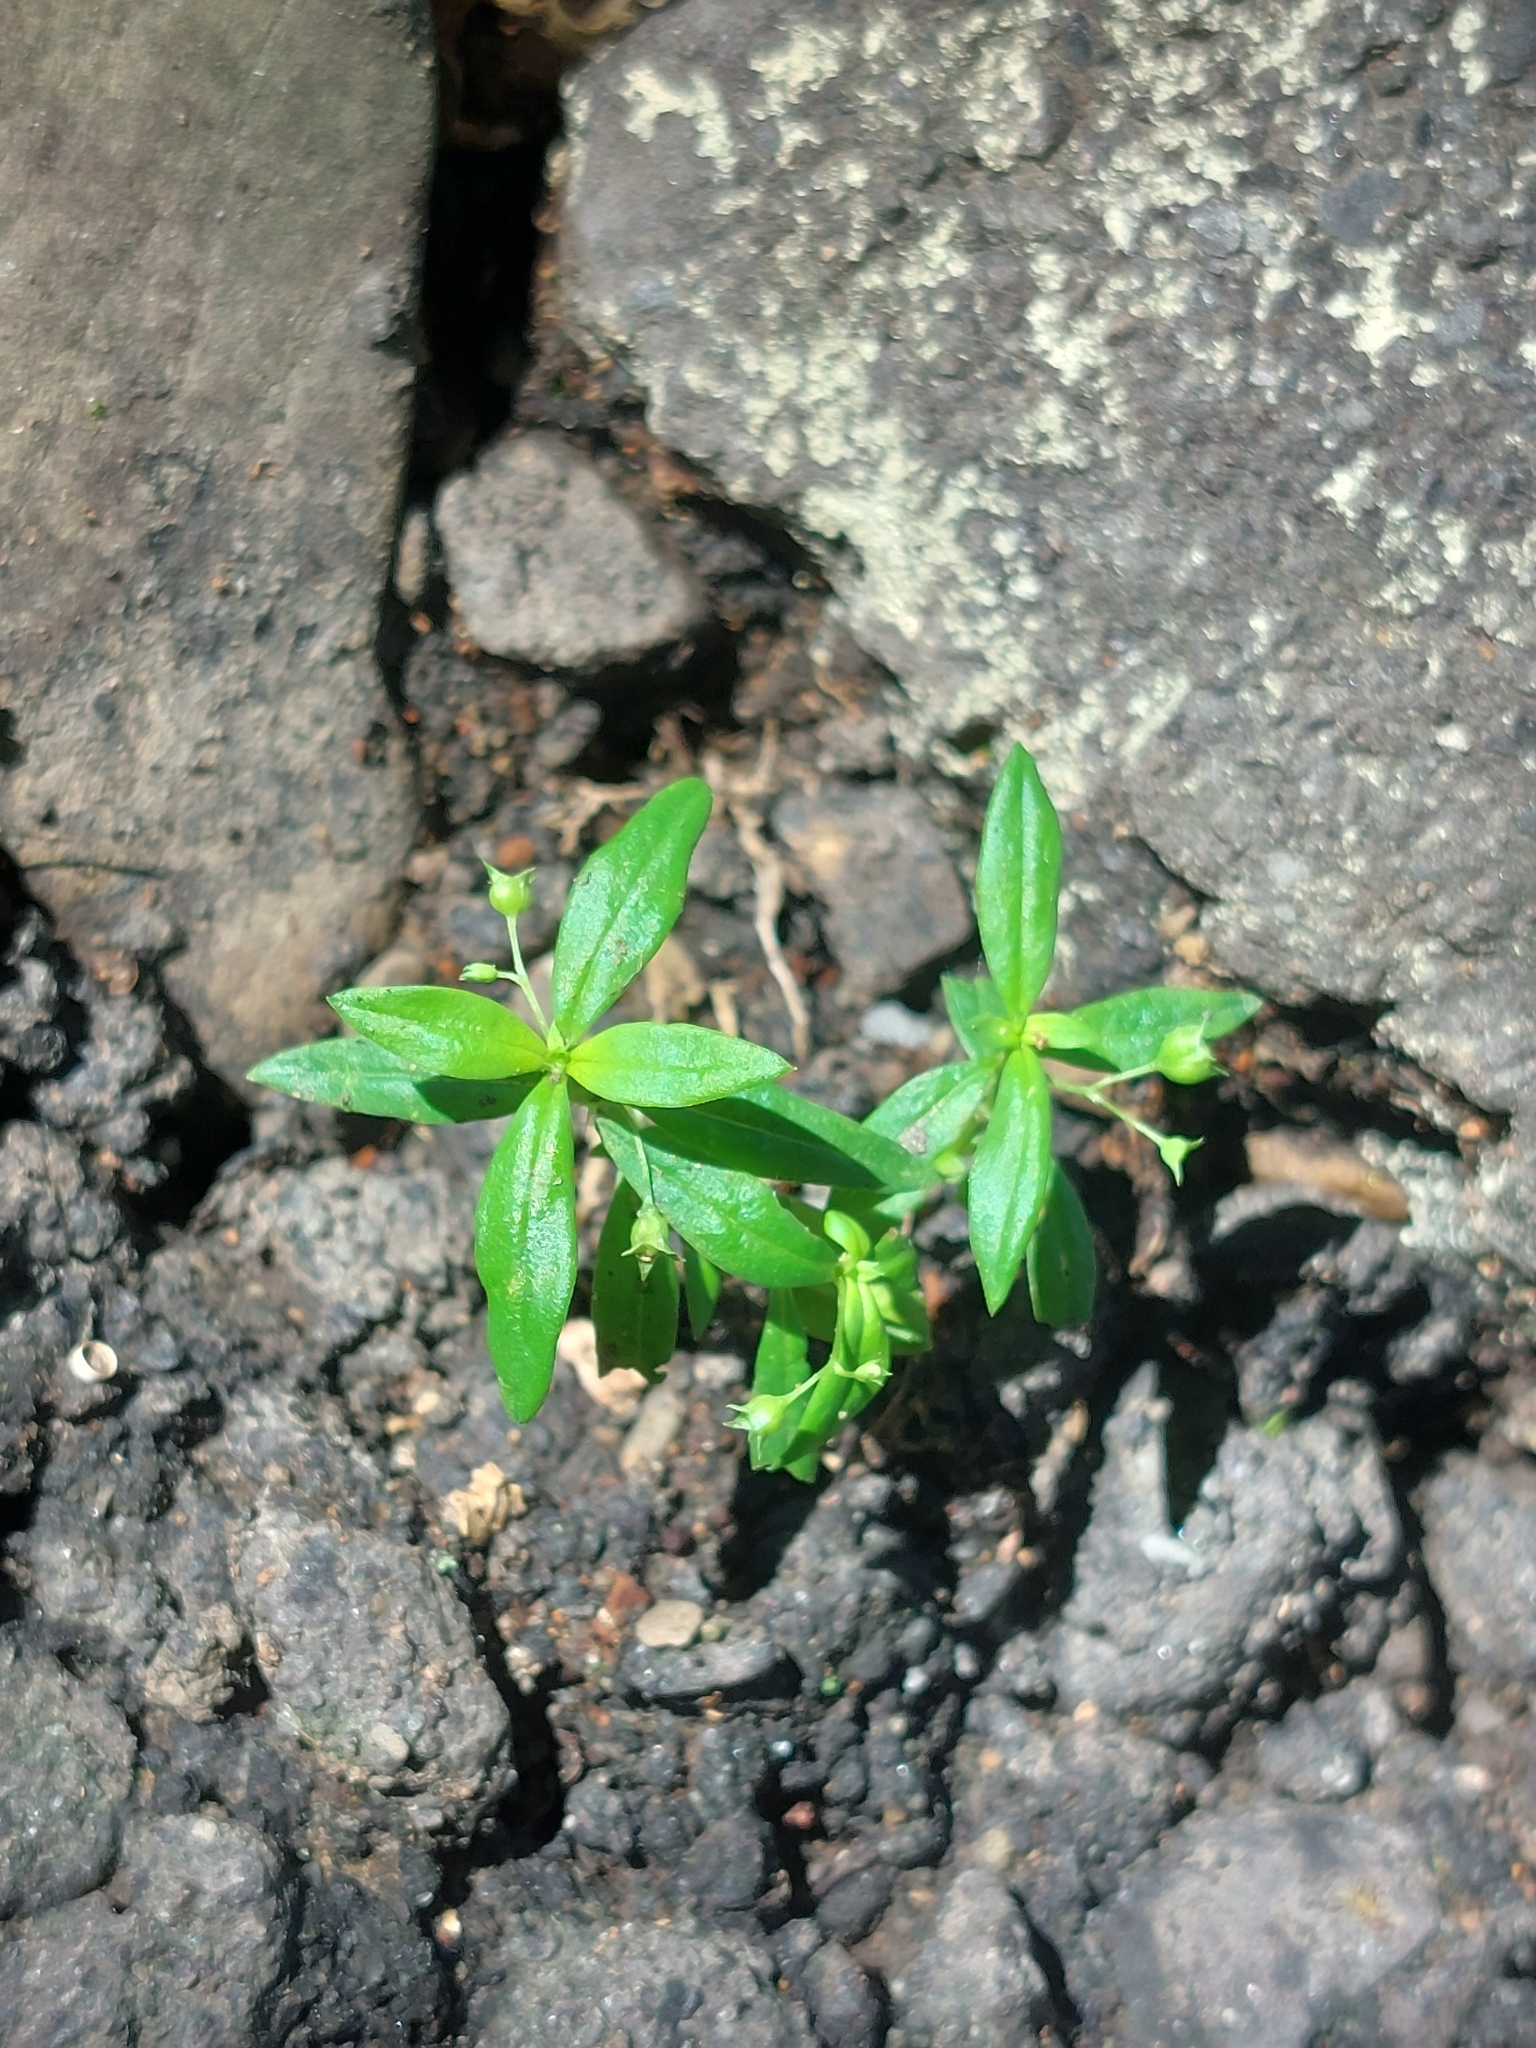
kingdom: Plantae
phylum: Tracheophyta
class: Magnoliopsida
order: Gentianales
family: Rubiaceae
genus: Oldenlandia
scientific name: Oldenlandia corymbosa
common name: Flat-top mille graines
